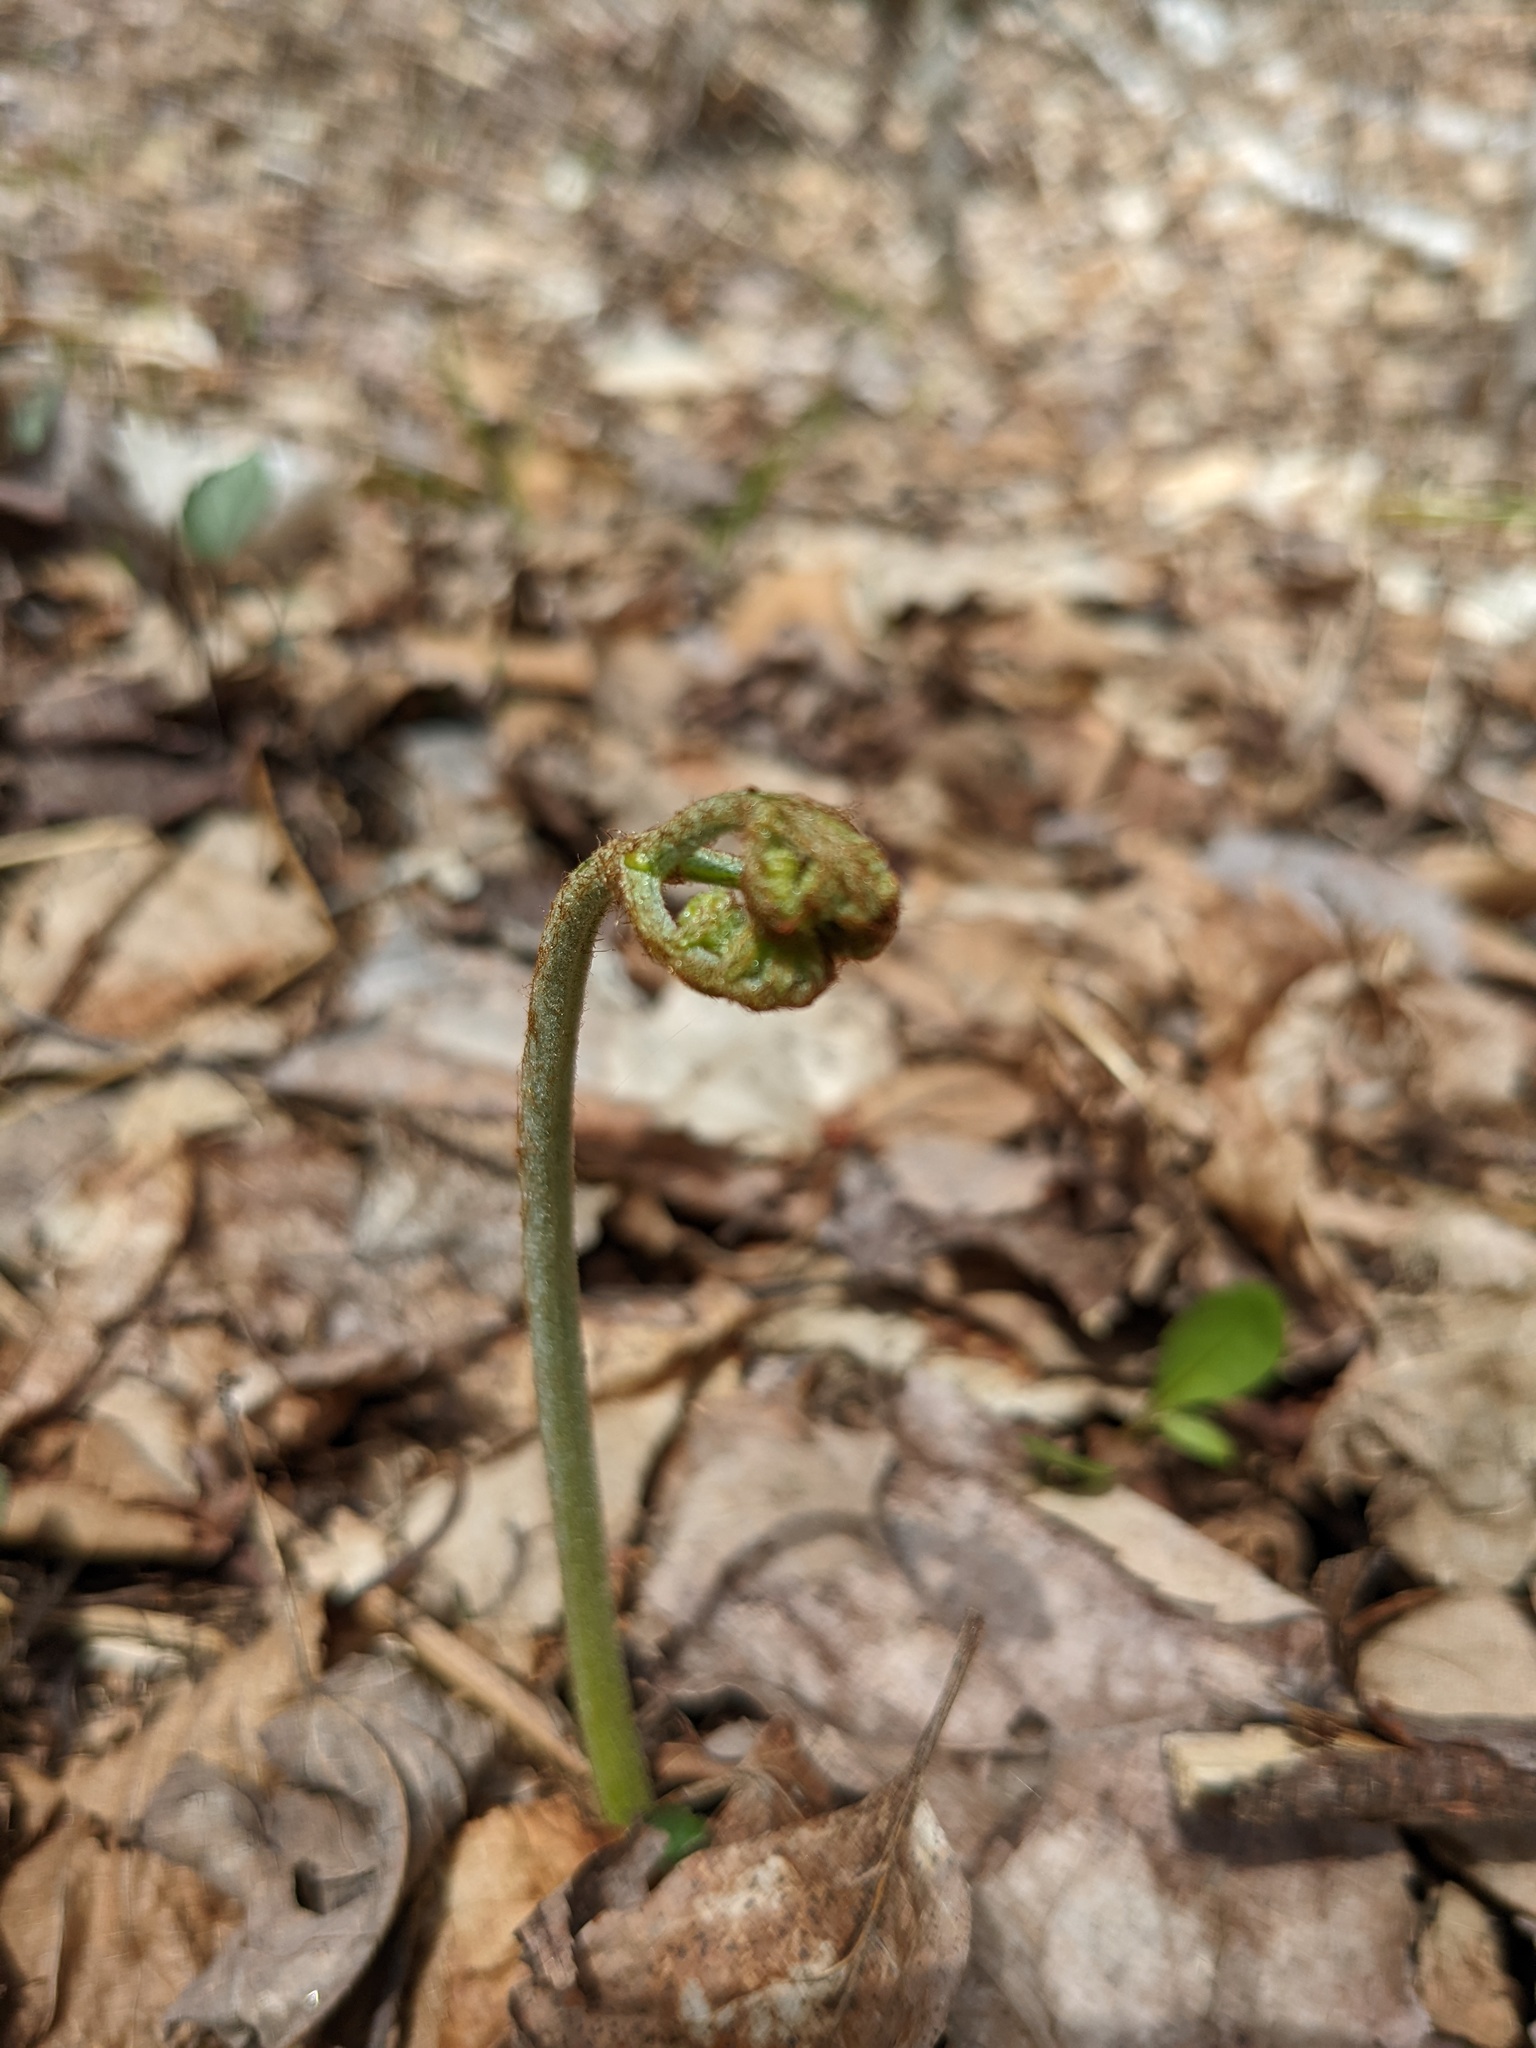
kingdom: Plantae
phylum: Tracheophyta
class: Polypodiopsida
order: Polypodiales
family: Dennstaedtiaceae
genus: Pteridium
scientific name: Pteridium aquilinum
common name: Bracken
